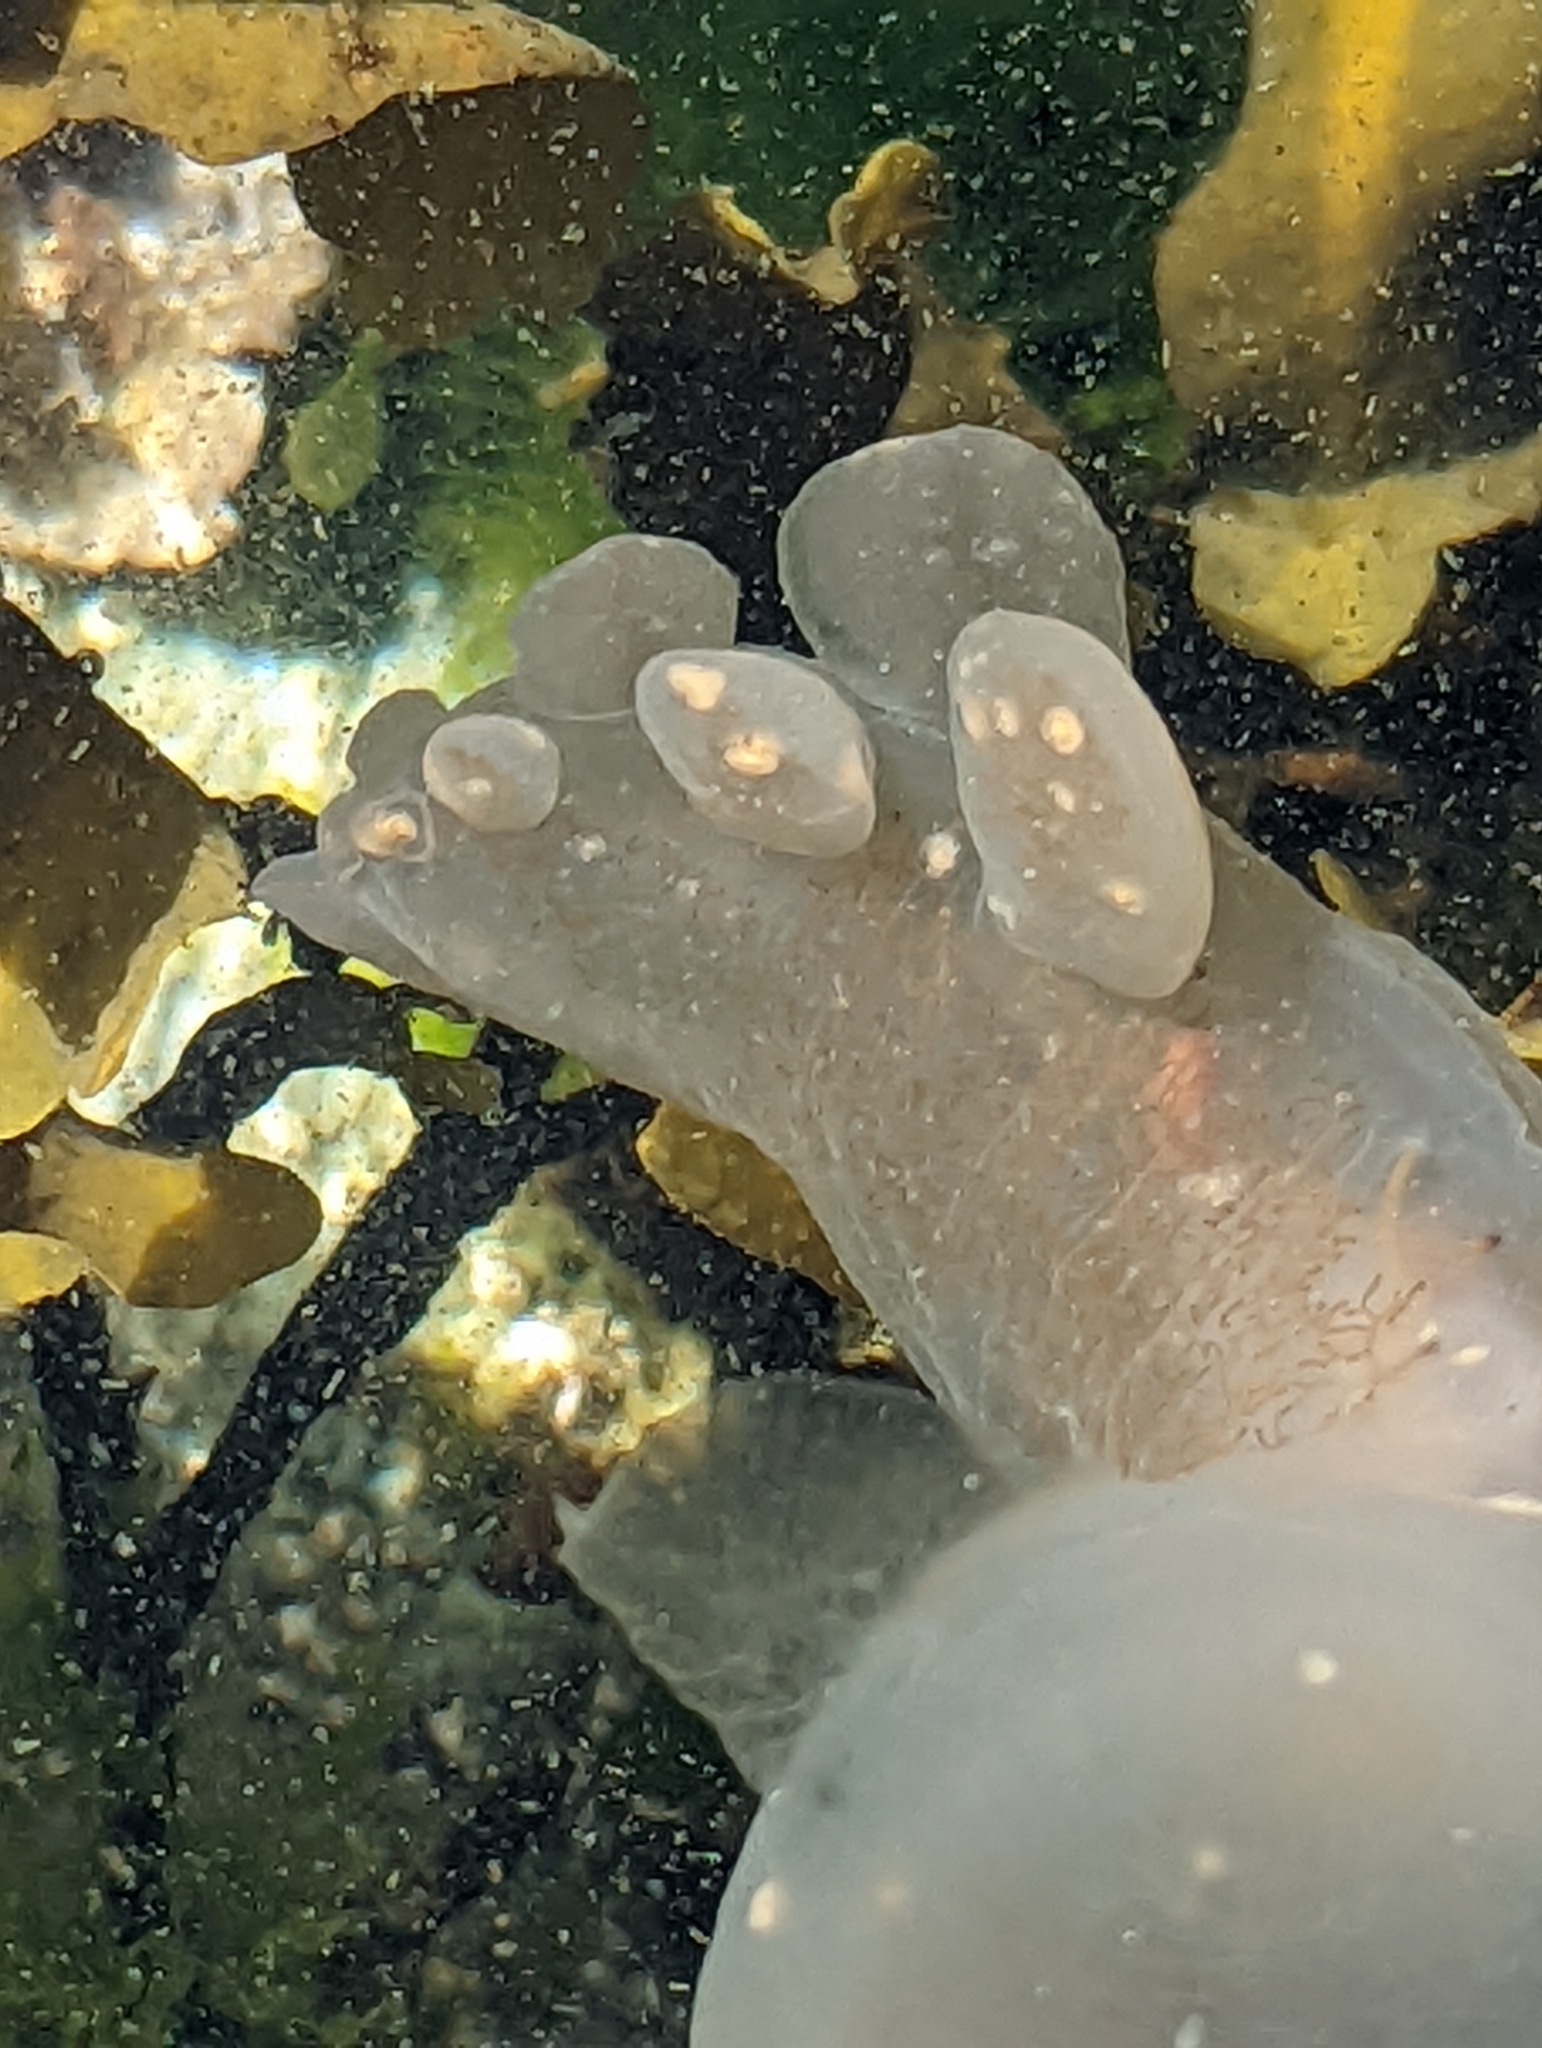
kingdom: Animalia
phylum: Mollusca
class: Gastropoda
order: Nudibranchia
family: Tethydidae
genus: Melibe
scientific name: Melibe leonina
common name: Lion nudibranch
